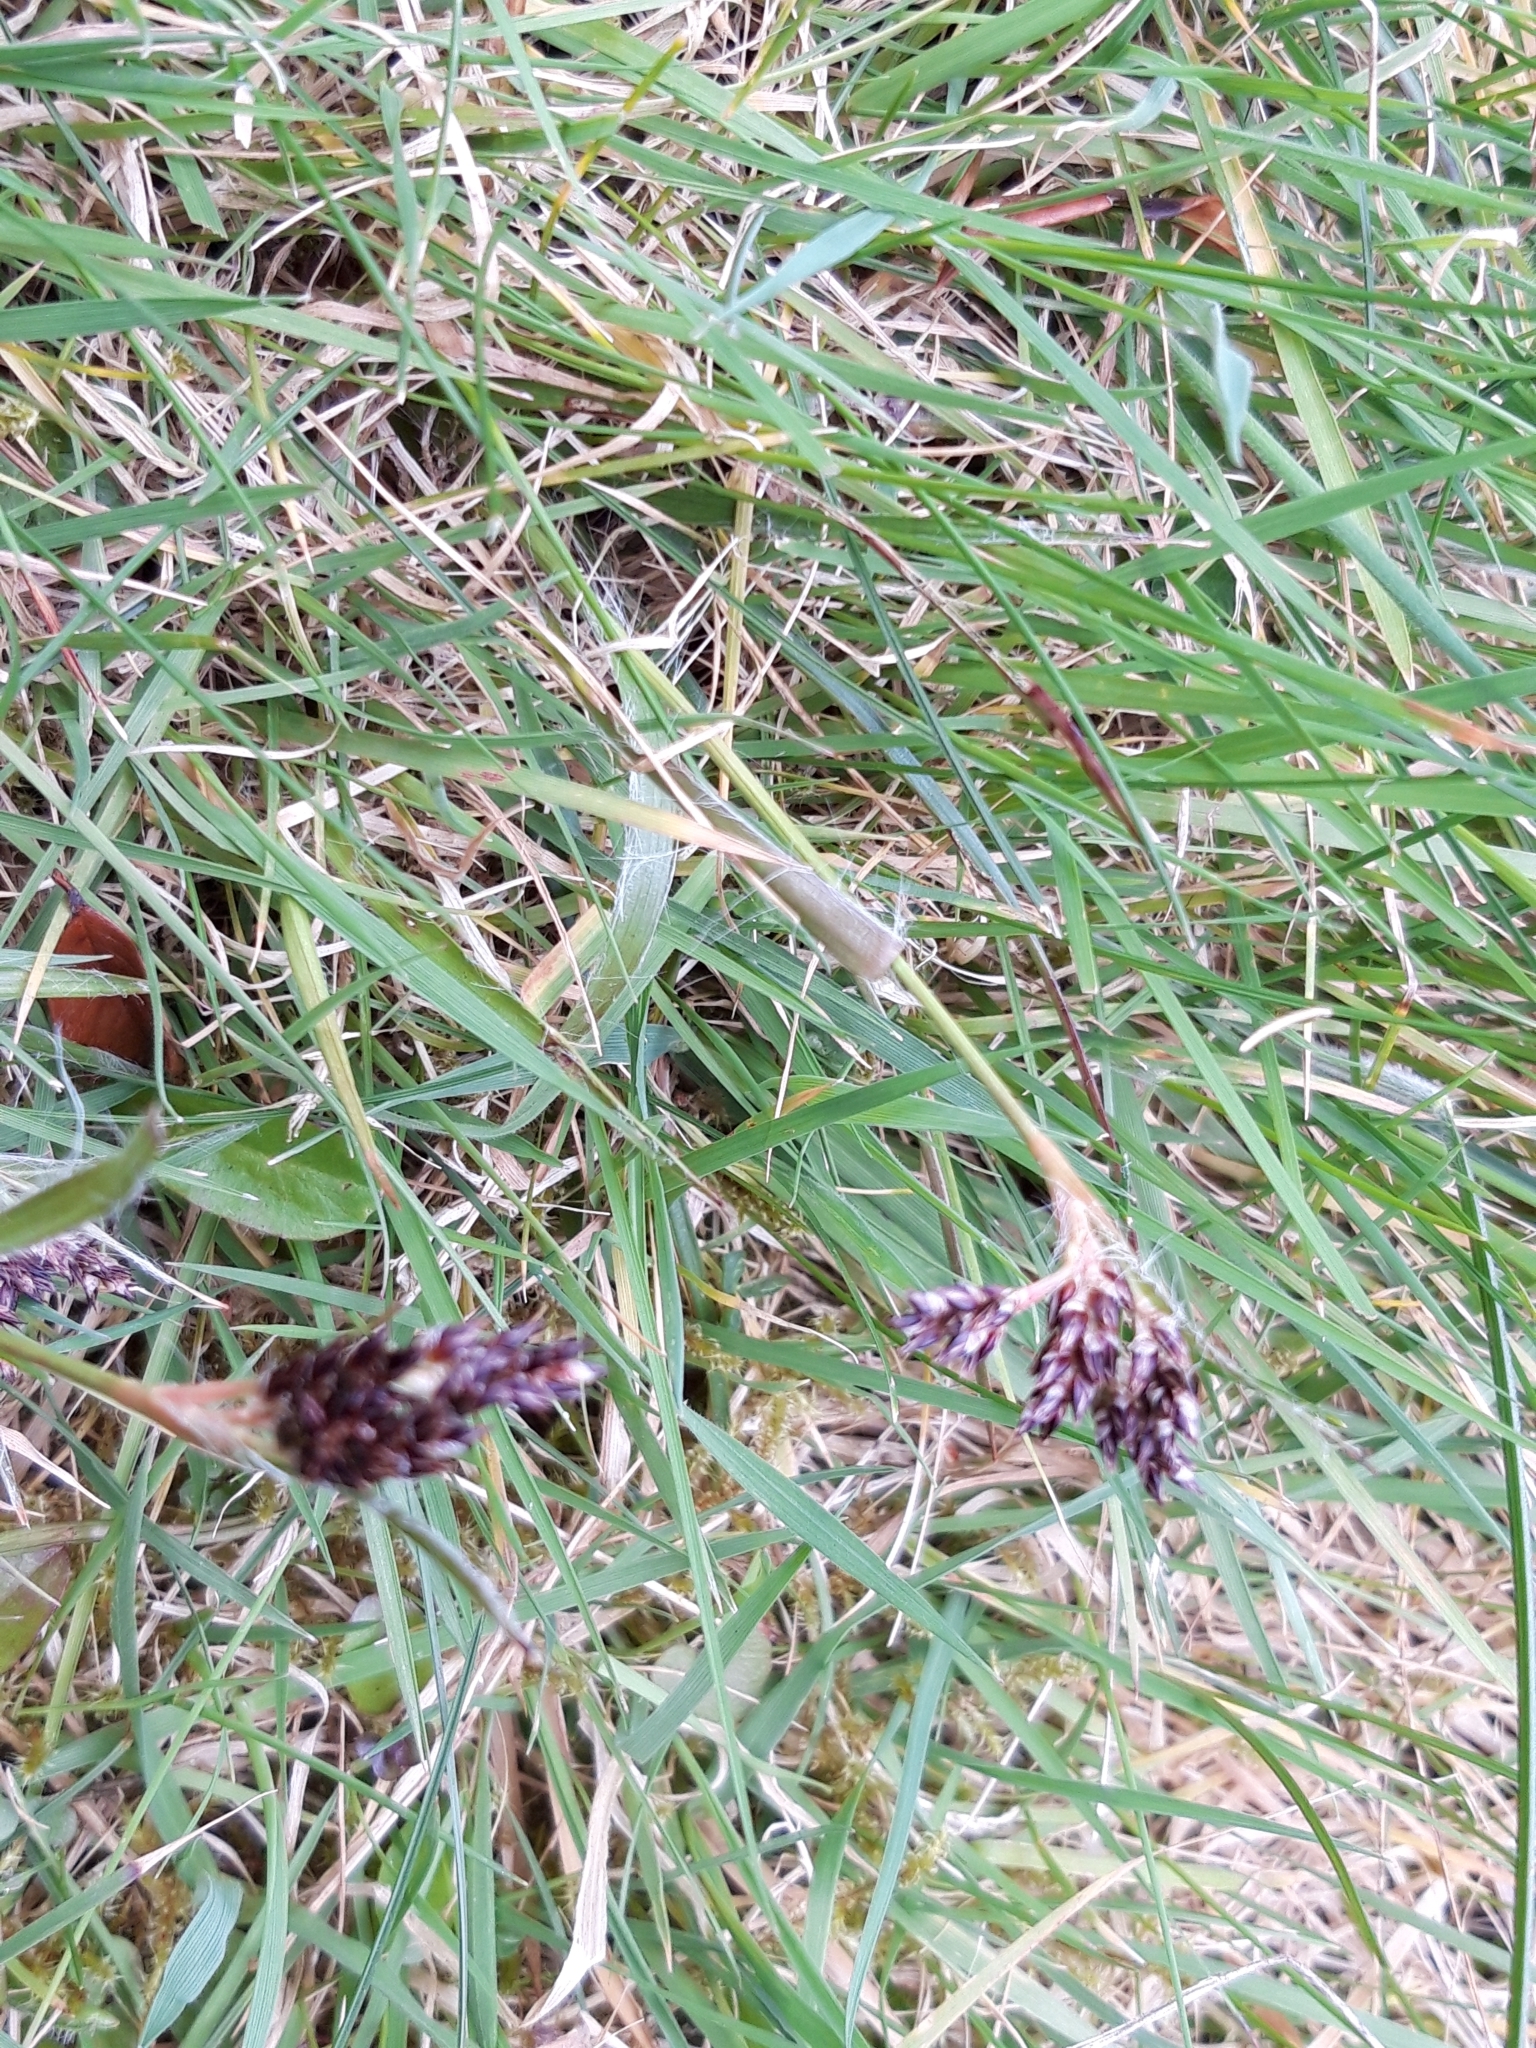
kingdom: Plantae
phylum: Tracheophyta
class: Liliopsida
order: Poales
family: Juncaceae
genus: Luzula
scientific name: Luzula campestris
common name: Field wood-rush
